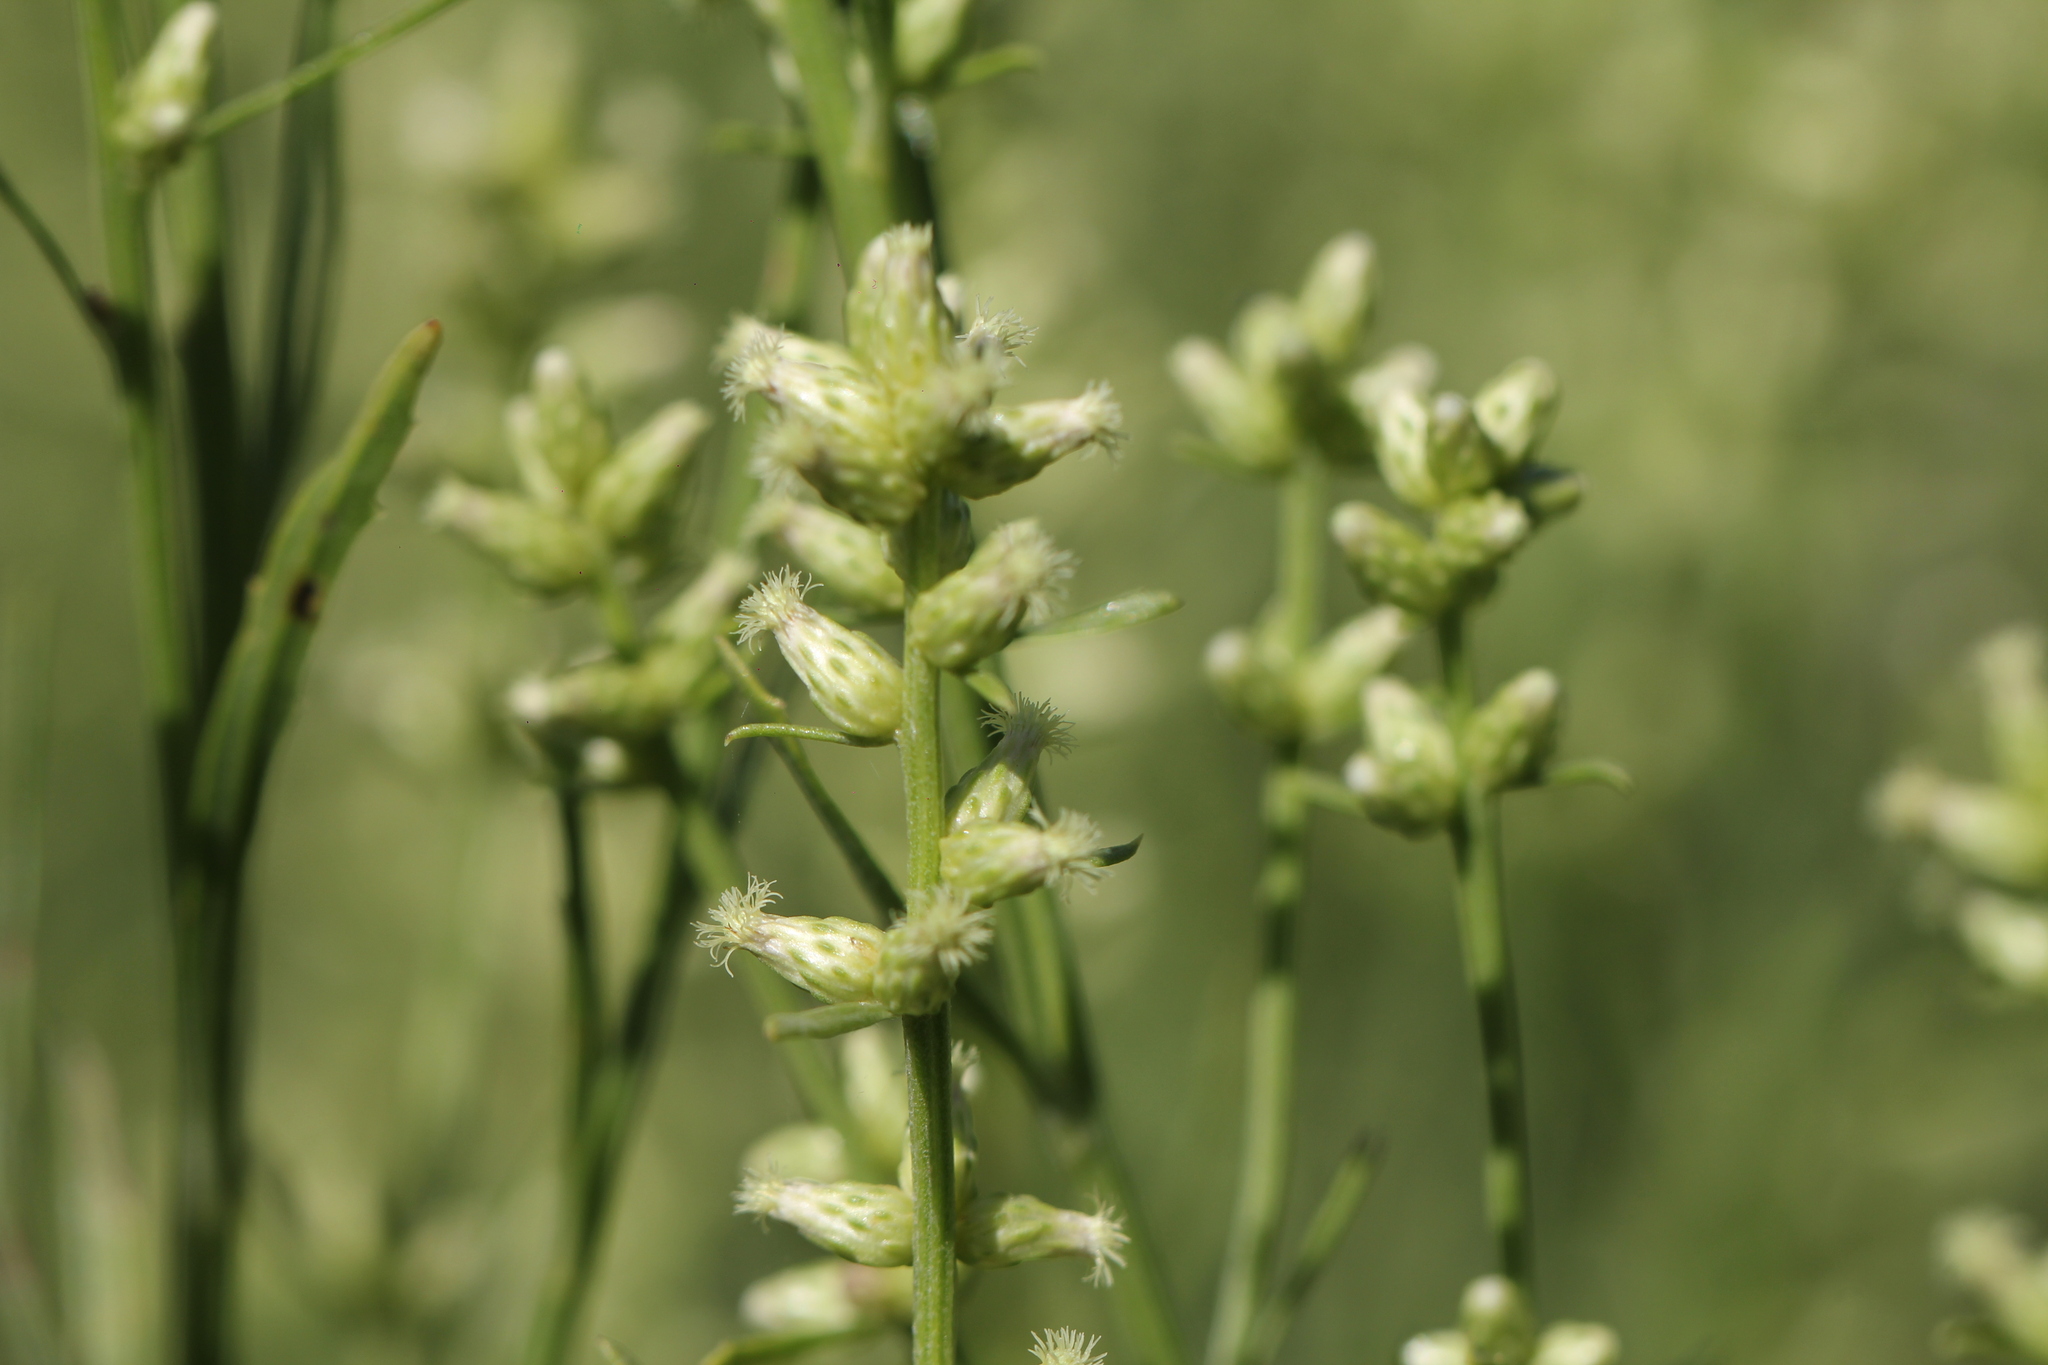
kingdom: Plantae
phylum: Tracheophyta
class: Magnoliopsida
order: Asterales
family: Asteraceae
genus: Baccharis
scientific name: Baccharis spicata
